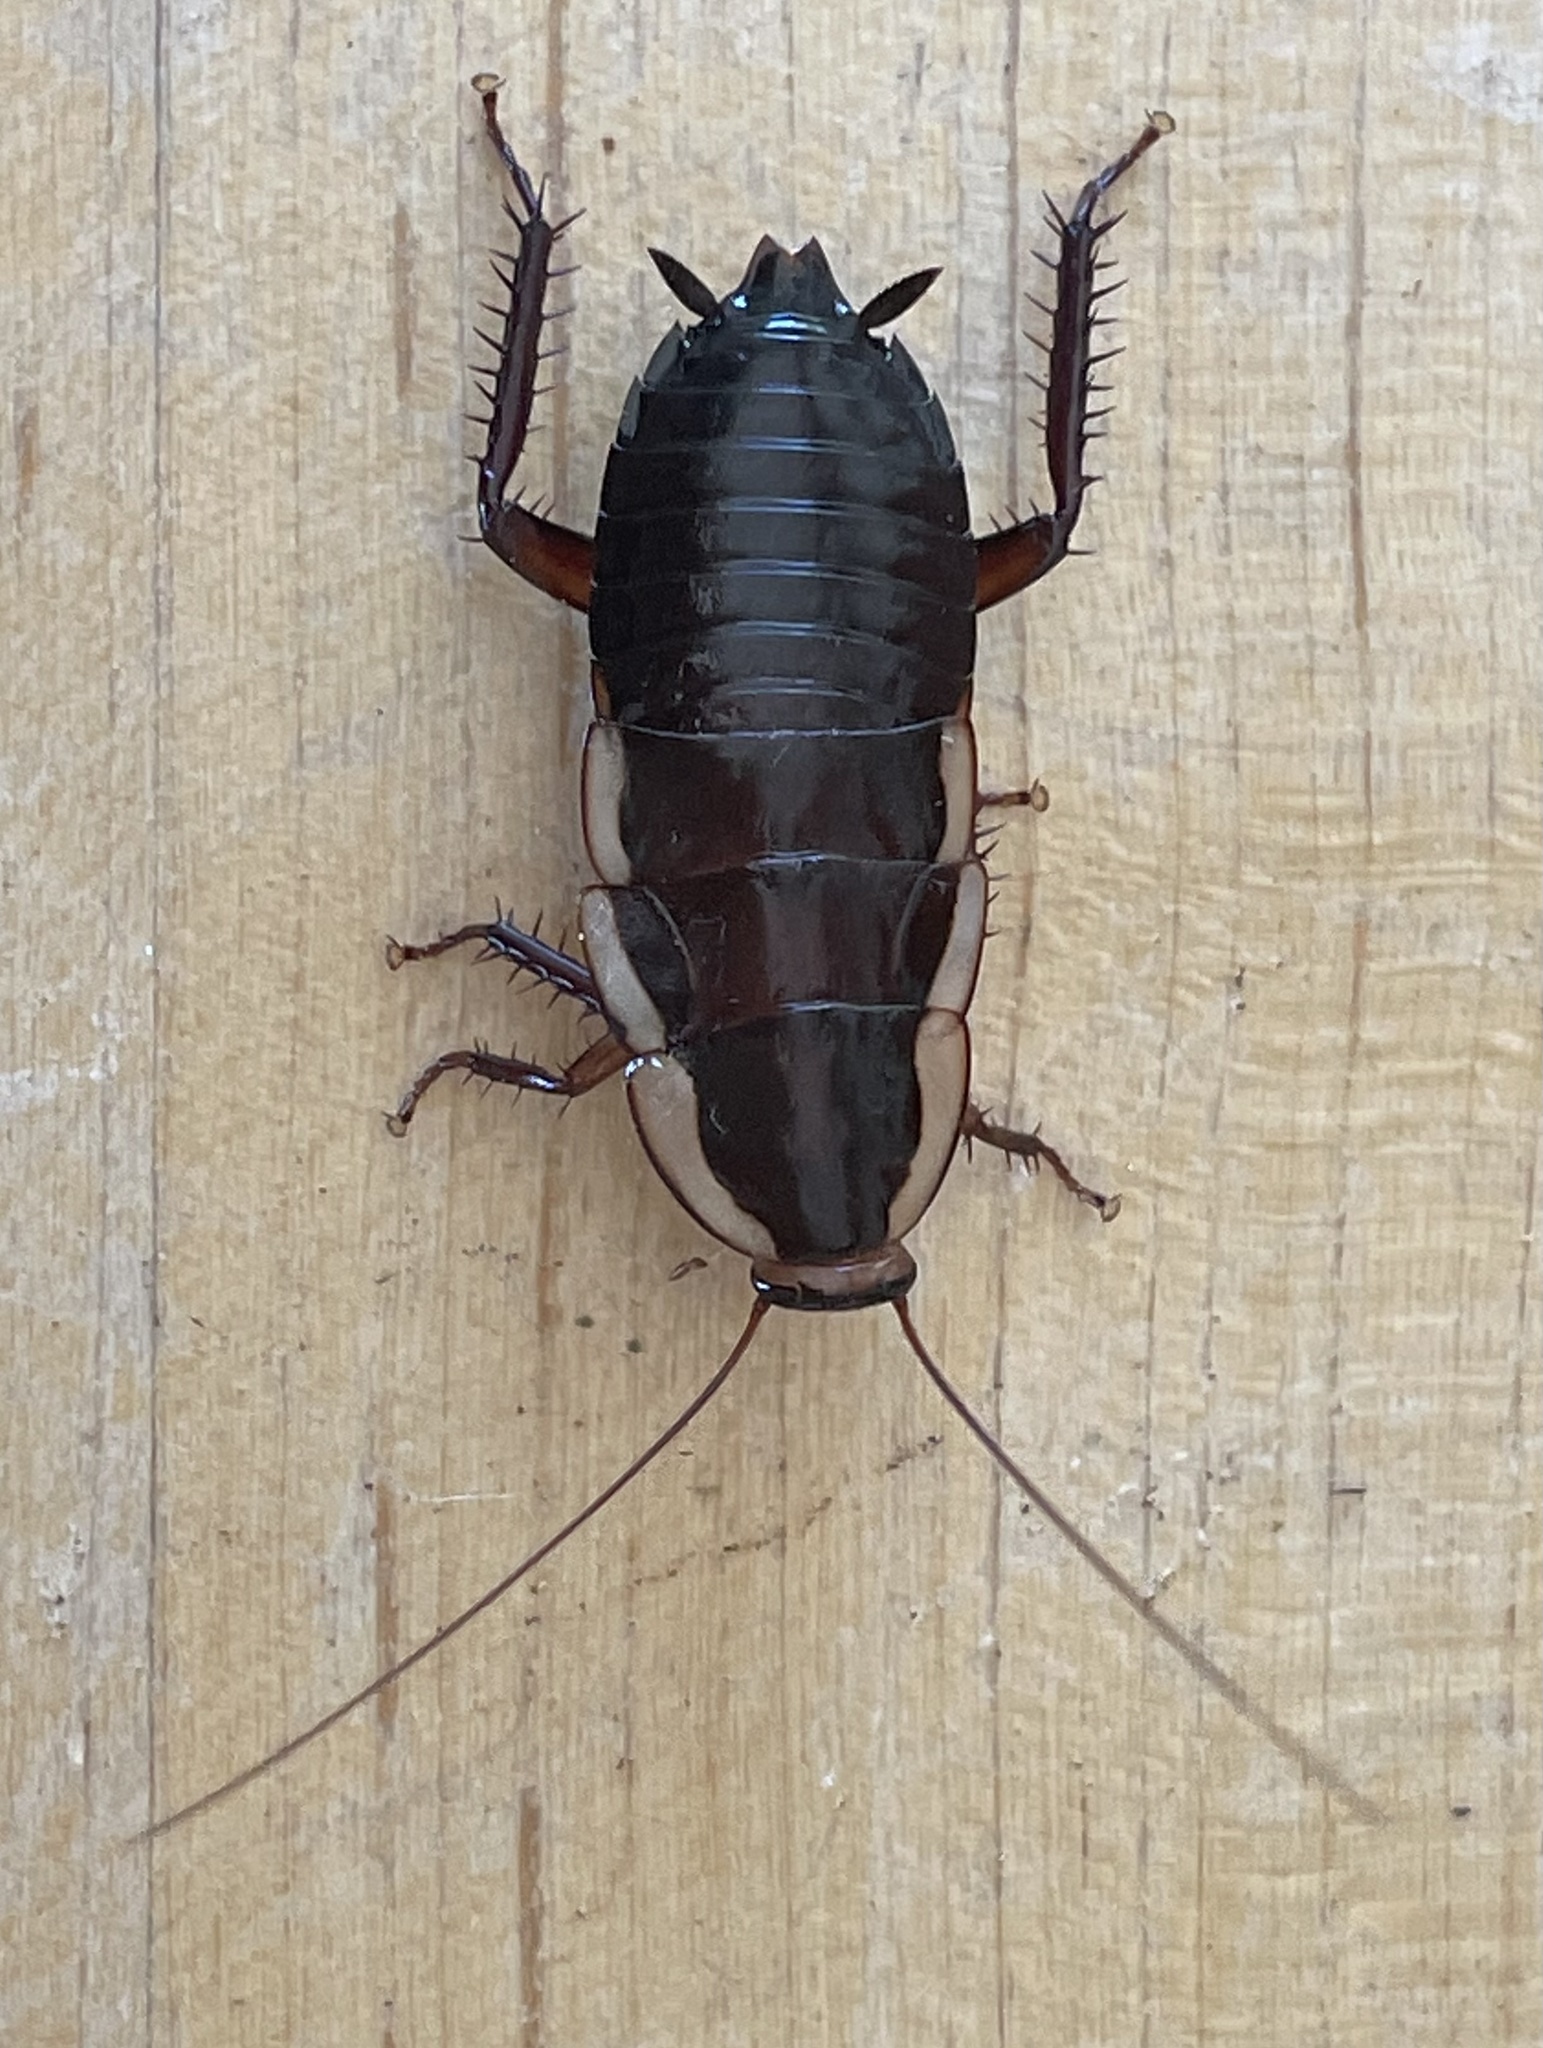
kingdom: Animalia
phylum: Arthropoda
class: Insecta
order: Blattodea
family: Blattidae
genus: Drymaplaneta
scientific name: Drymaplaneta semivitta
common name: Gisborne cockroach
